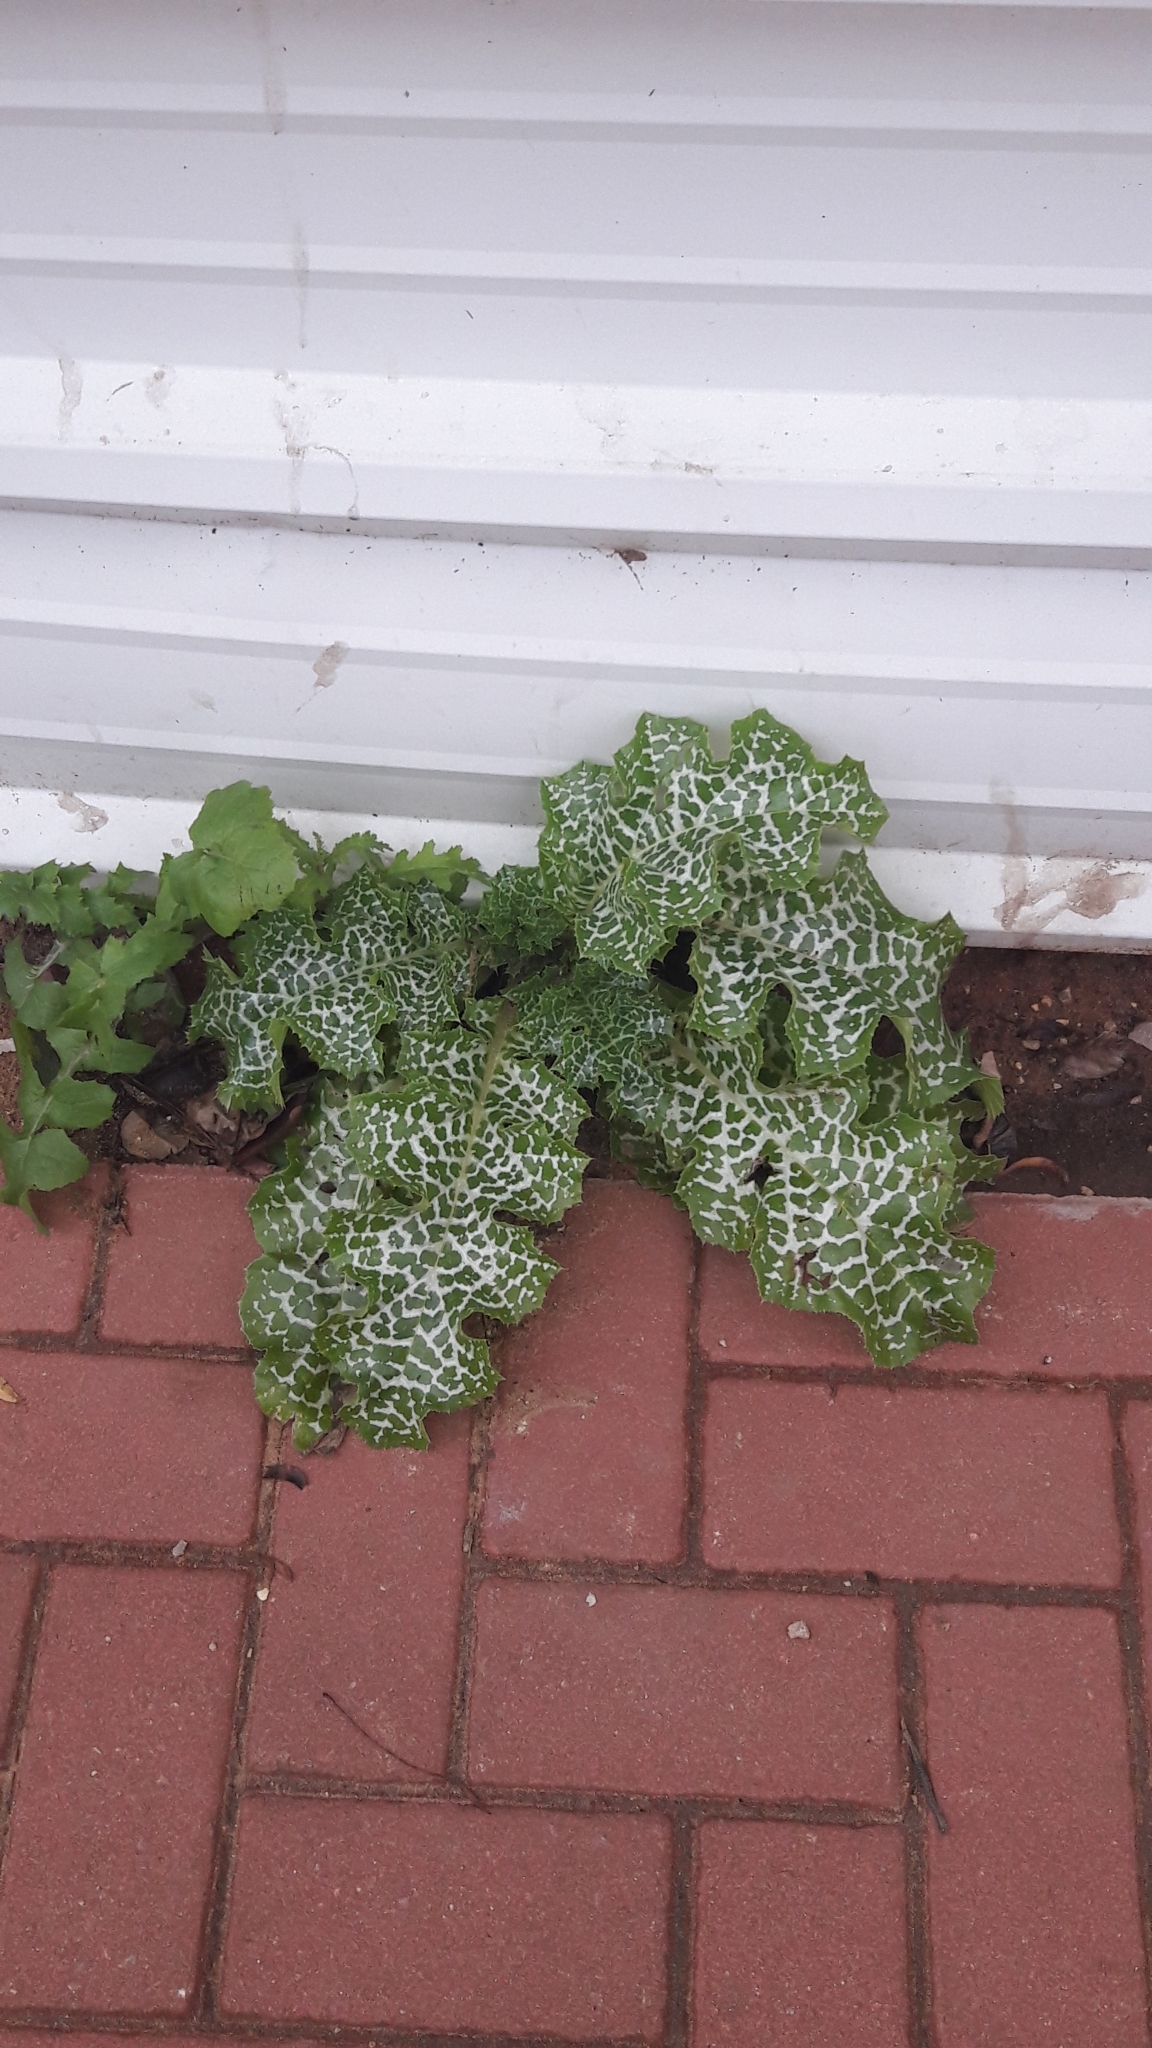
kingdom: Plantae
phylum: Tracheophyta
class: Magnoliopsida
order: Asterales
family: Asteraceae
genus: Silybum
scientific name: Silybum marianum
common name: Milk thistle
